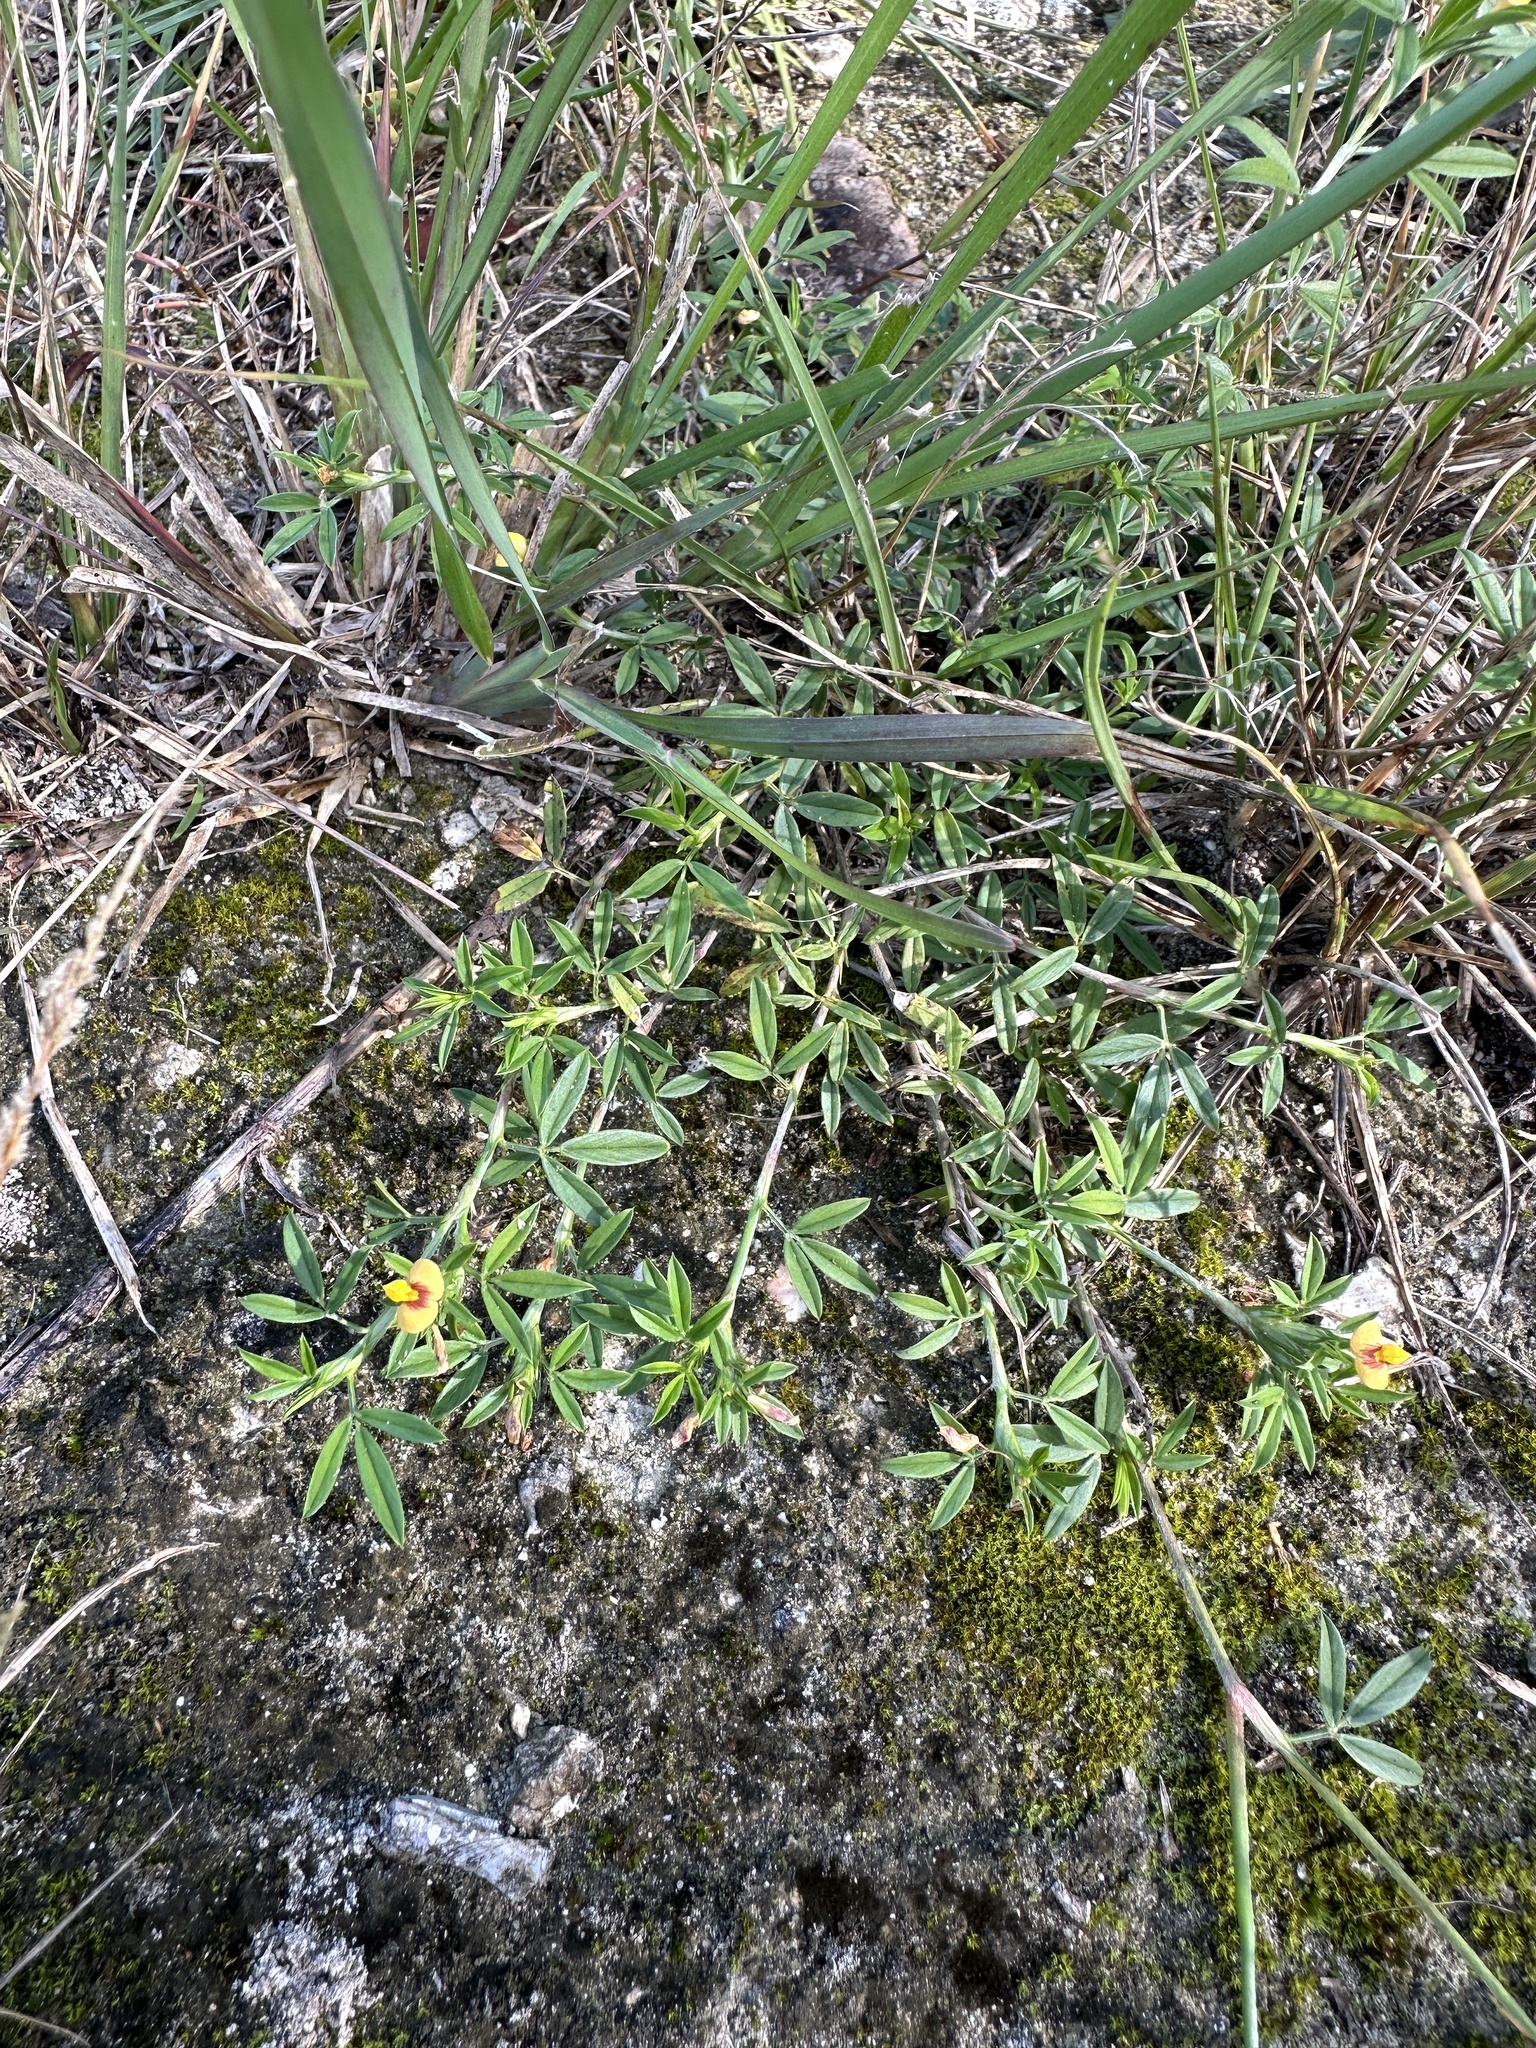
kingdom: Plantae
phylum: Tracheophyta
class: Magnoliopsida
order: Fabales
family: Fabaceae
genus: Stylosanthes
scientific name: Stylosanthes hamata
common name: Cheesytoes
